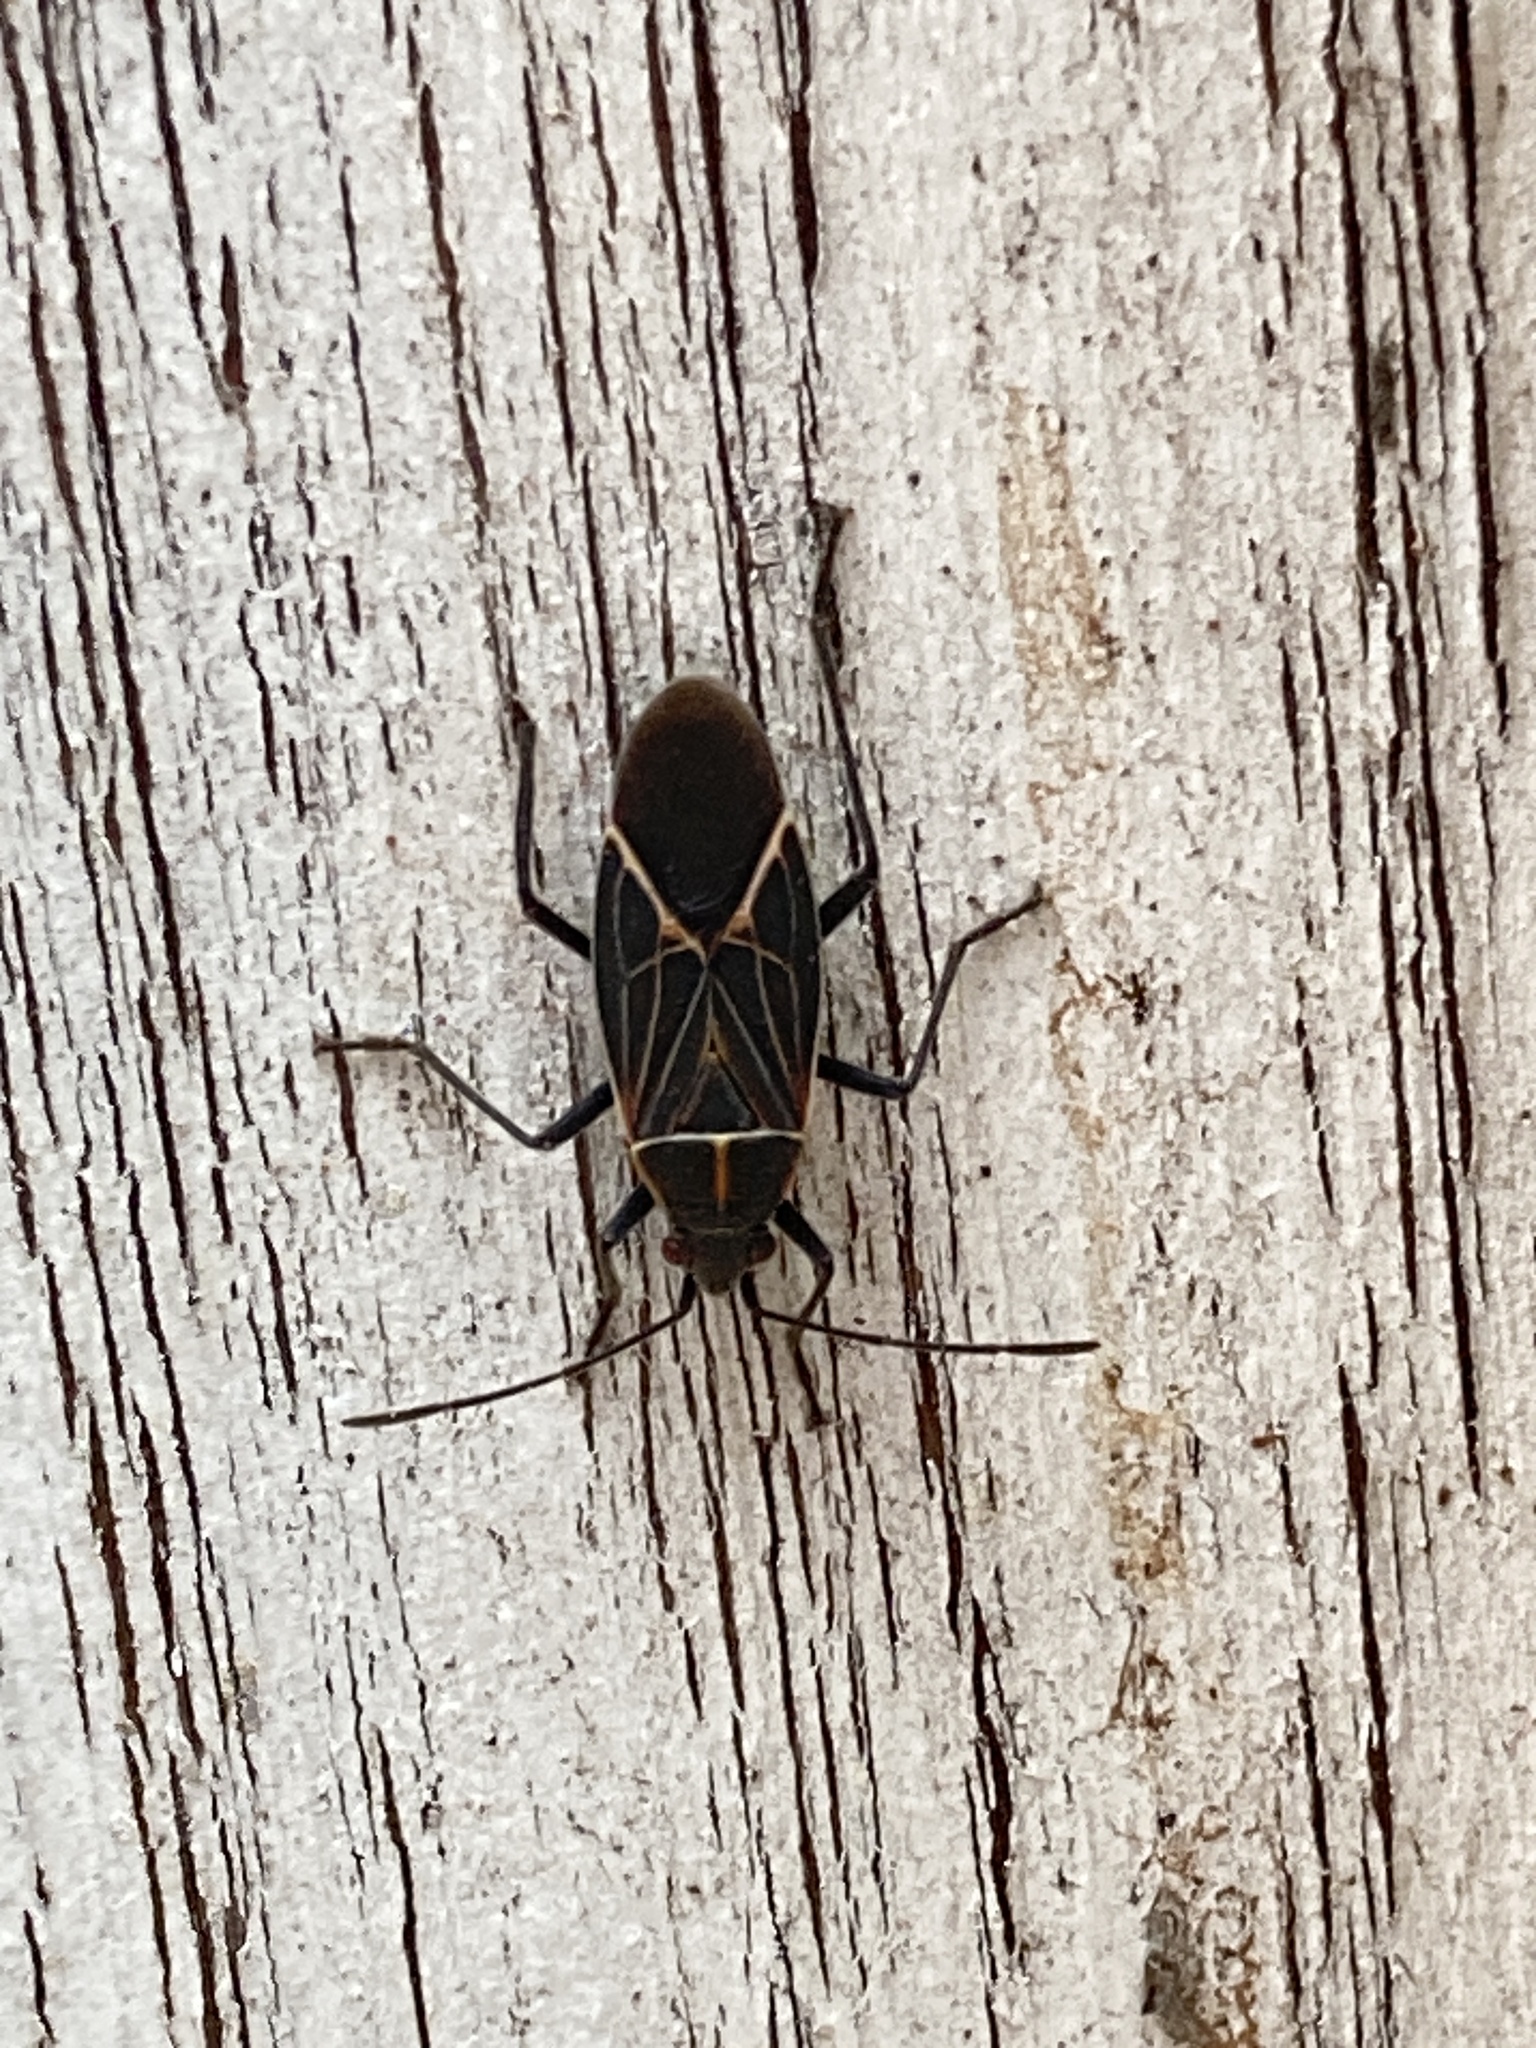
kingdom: Animalia
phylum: Arthropoda
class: Insecta
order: Hemiptera
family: Rhopalidae
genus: Boisea
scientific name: Boisea rubrolineata
